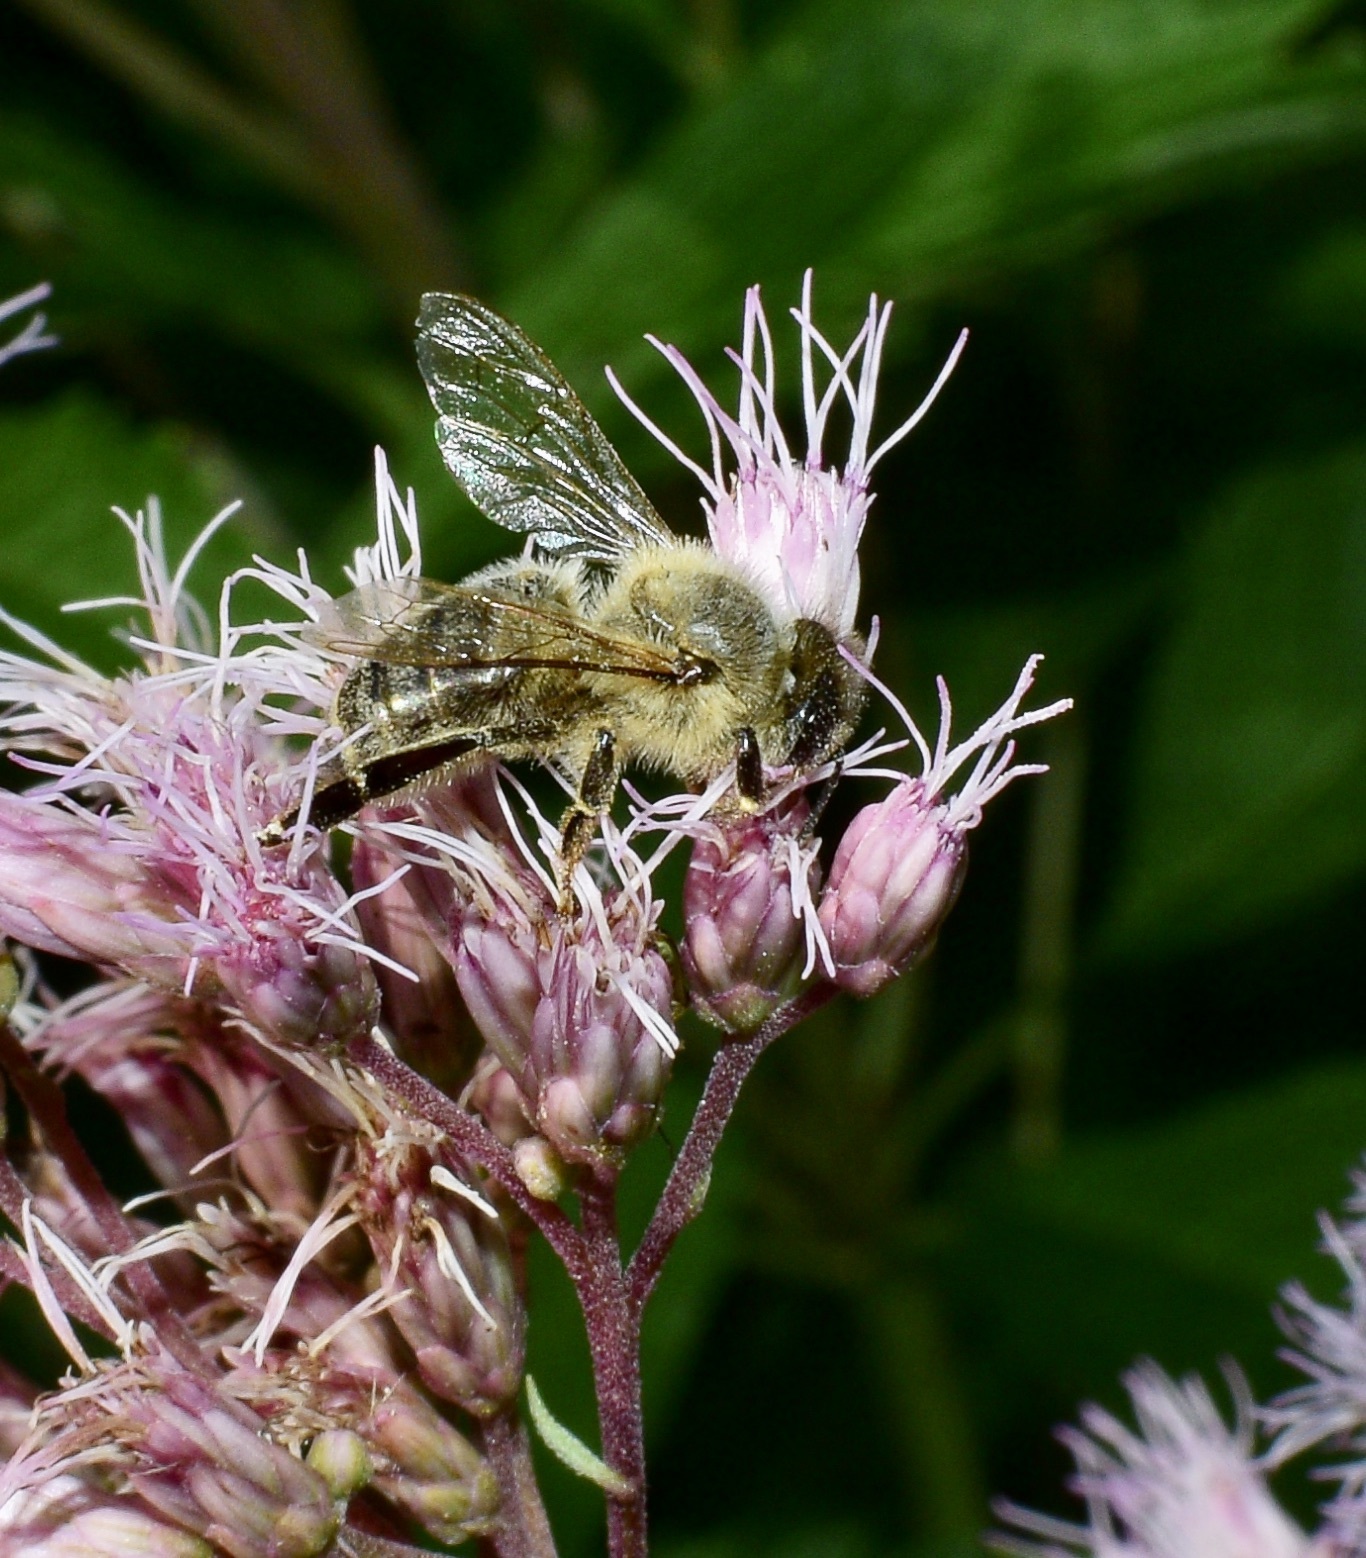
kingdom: Animalia
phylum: Arthropoda
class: Insecta
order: Hymenoptera
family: Apidae
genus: Apis
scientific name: Apis mellifera
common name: Honey bee
